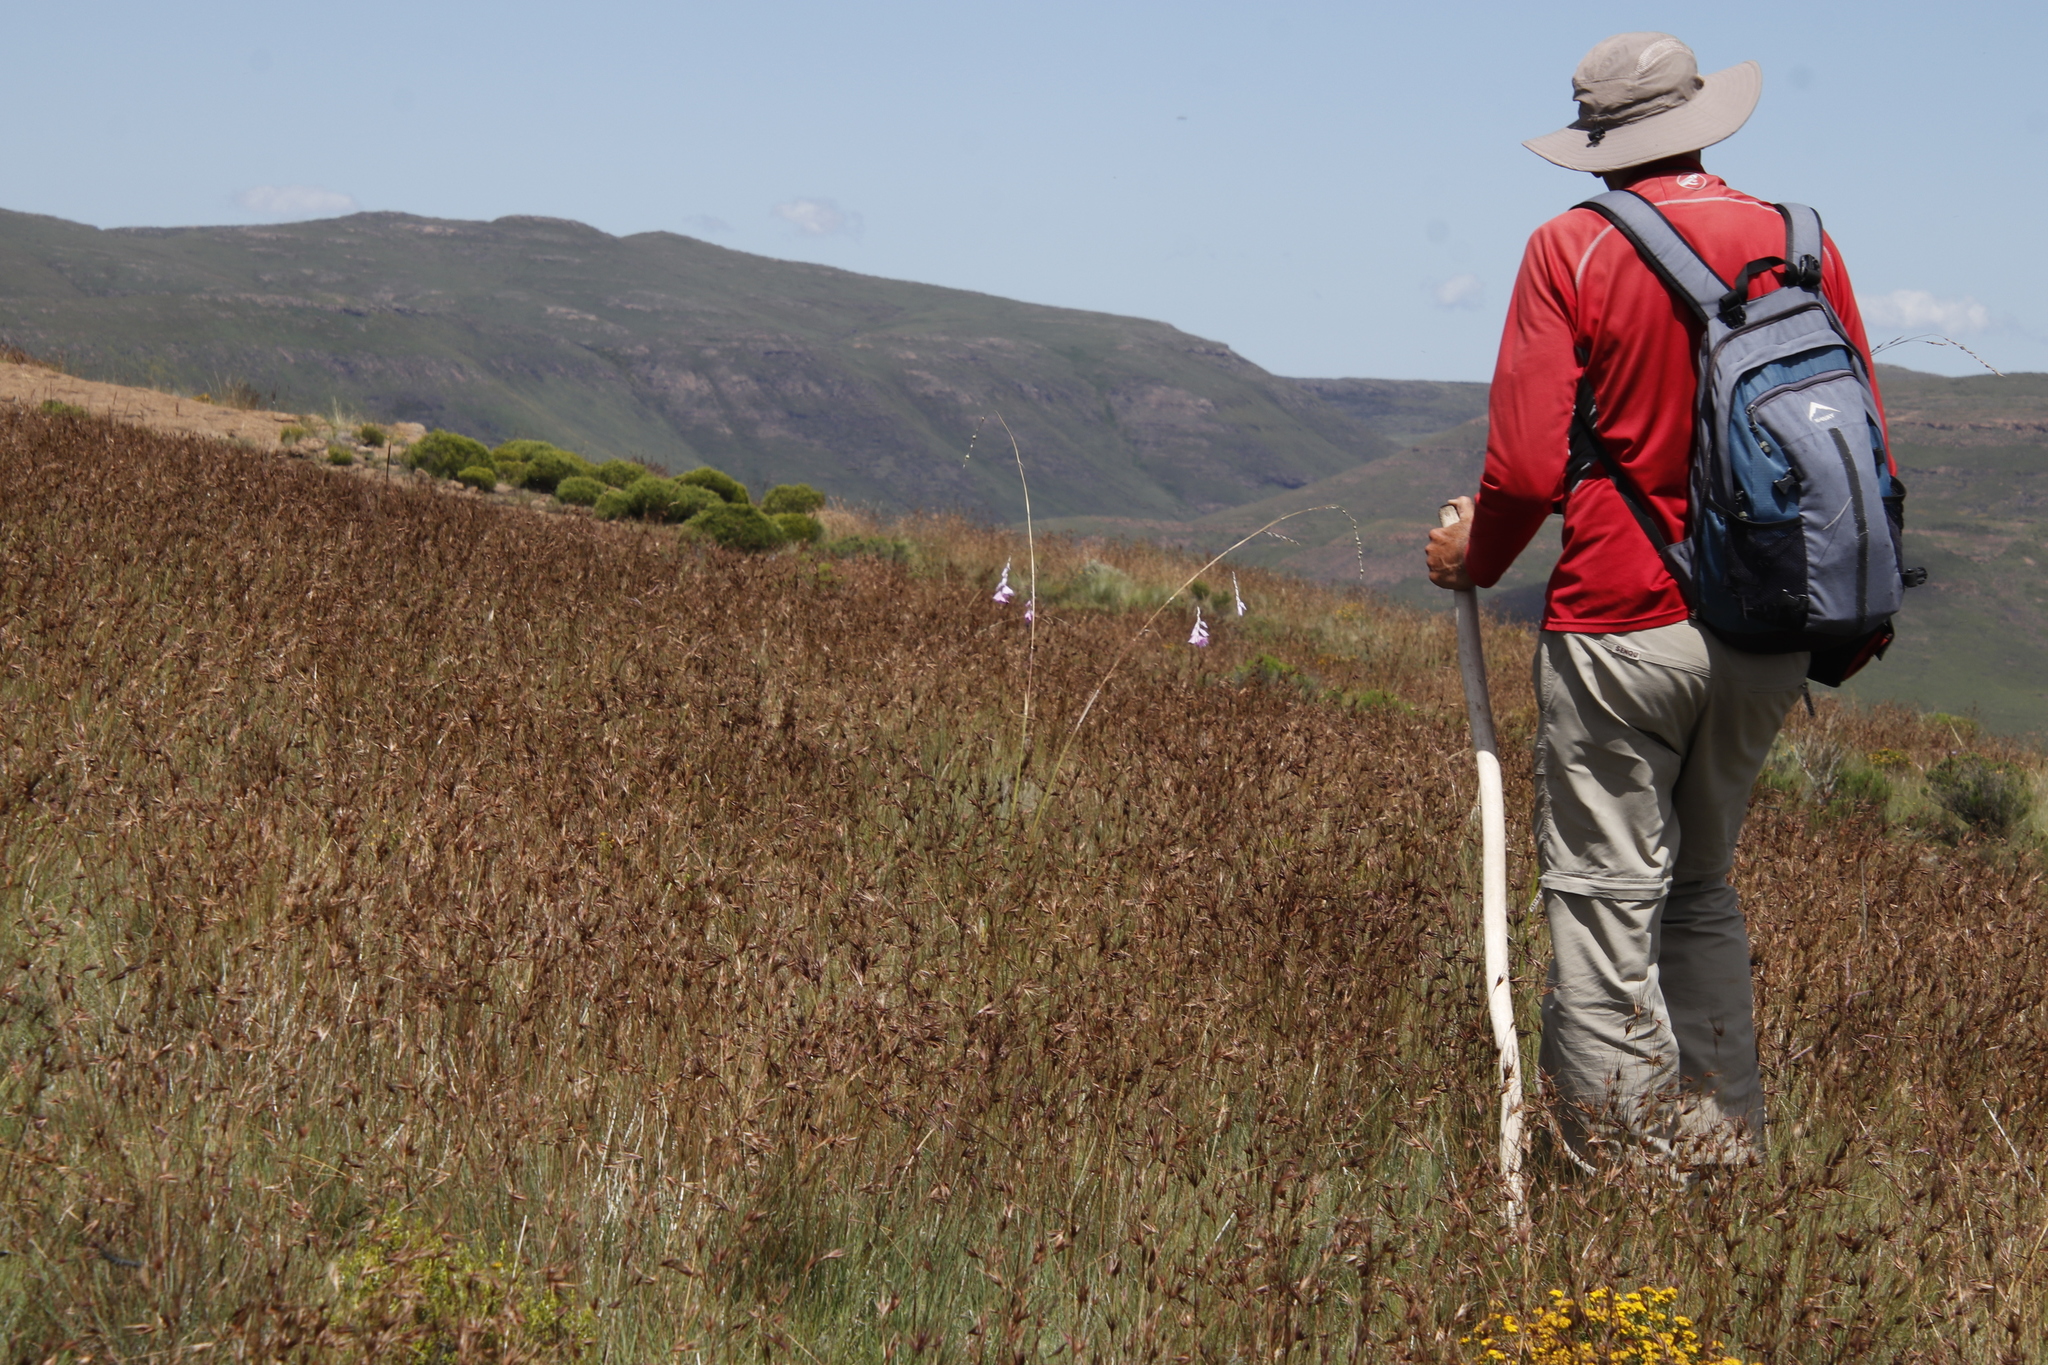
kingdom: Plantae
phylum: Tracheophyta
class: Liliopsida
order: Poales
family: Poaceae
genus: Themeda
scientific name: Themeda triandra
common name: Kangaroo grass
